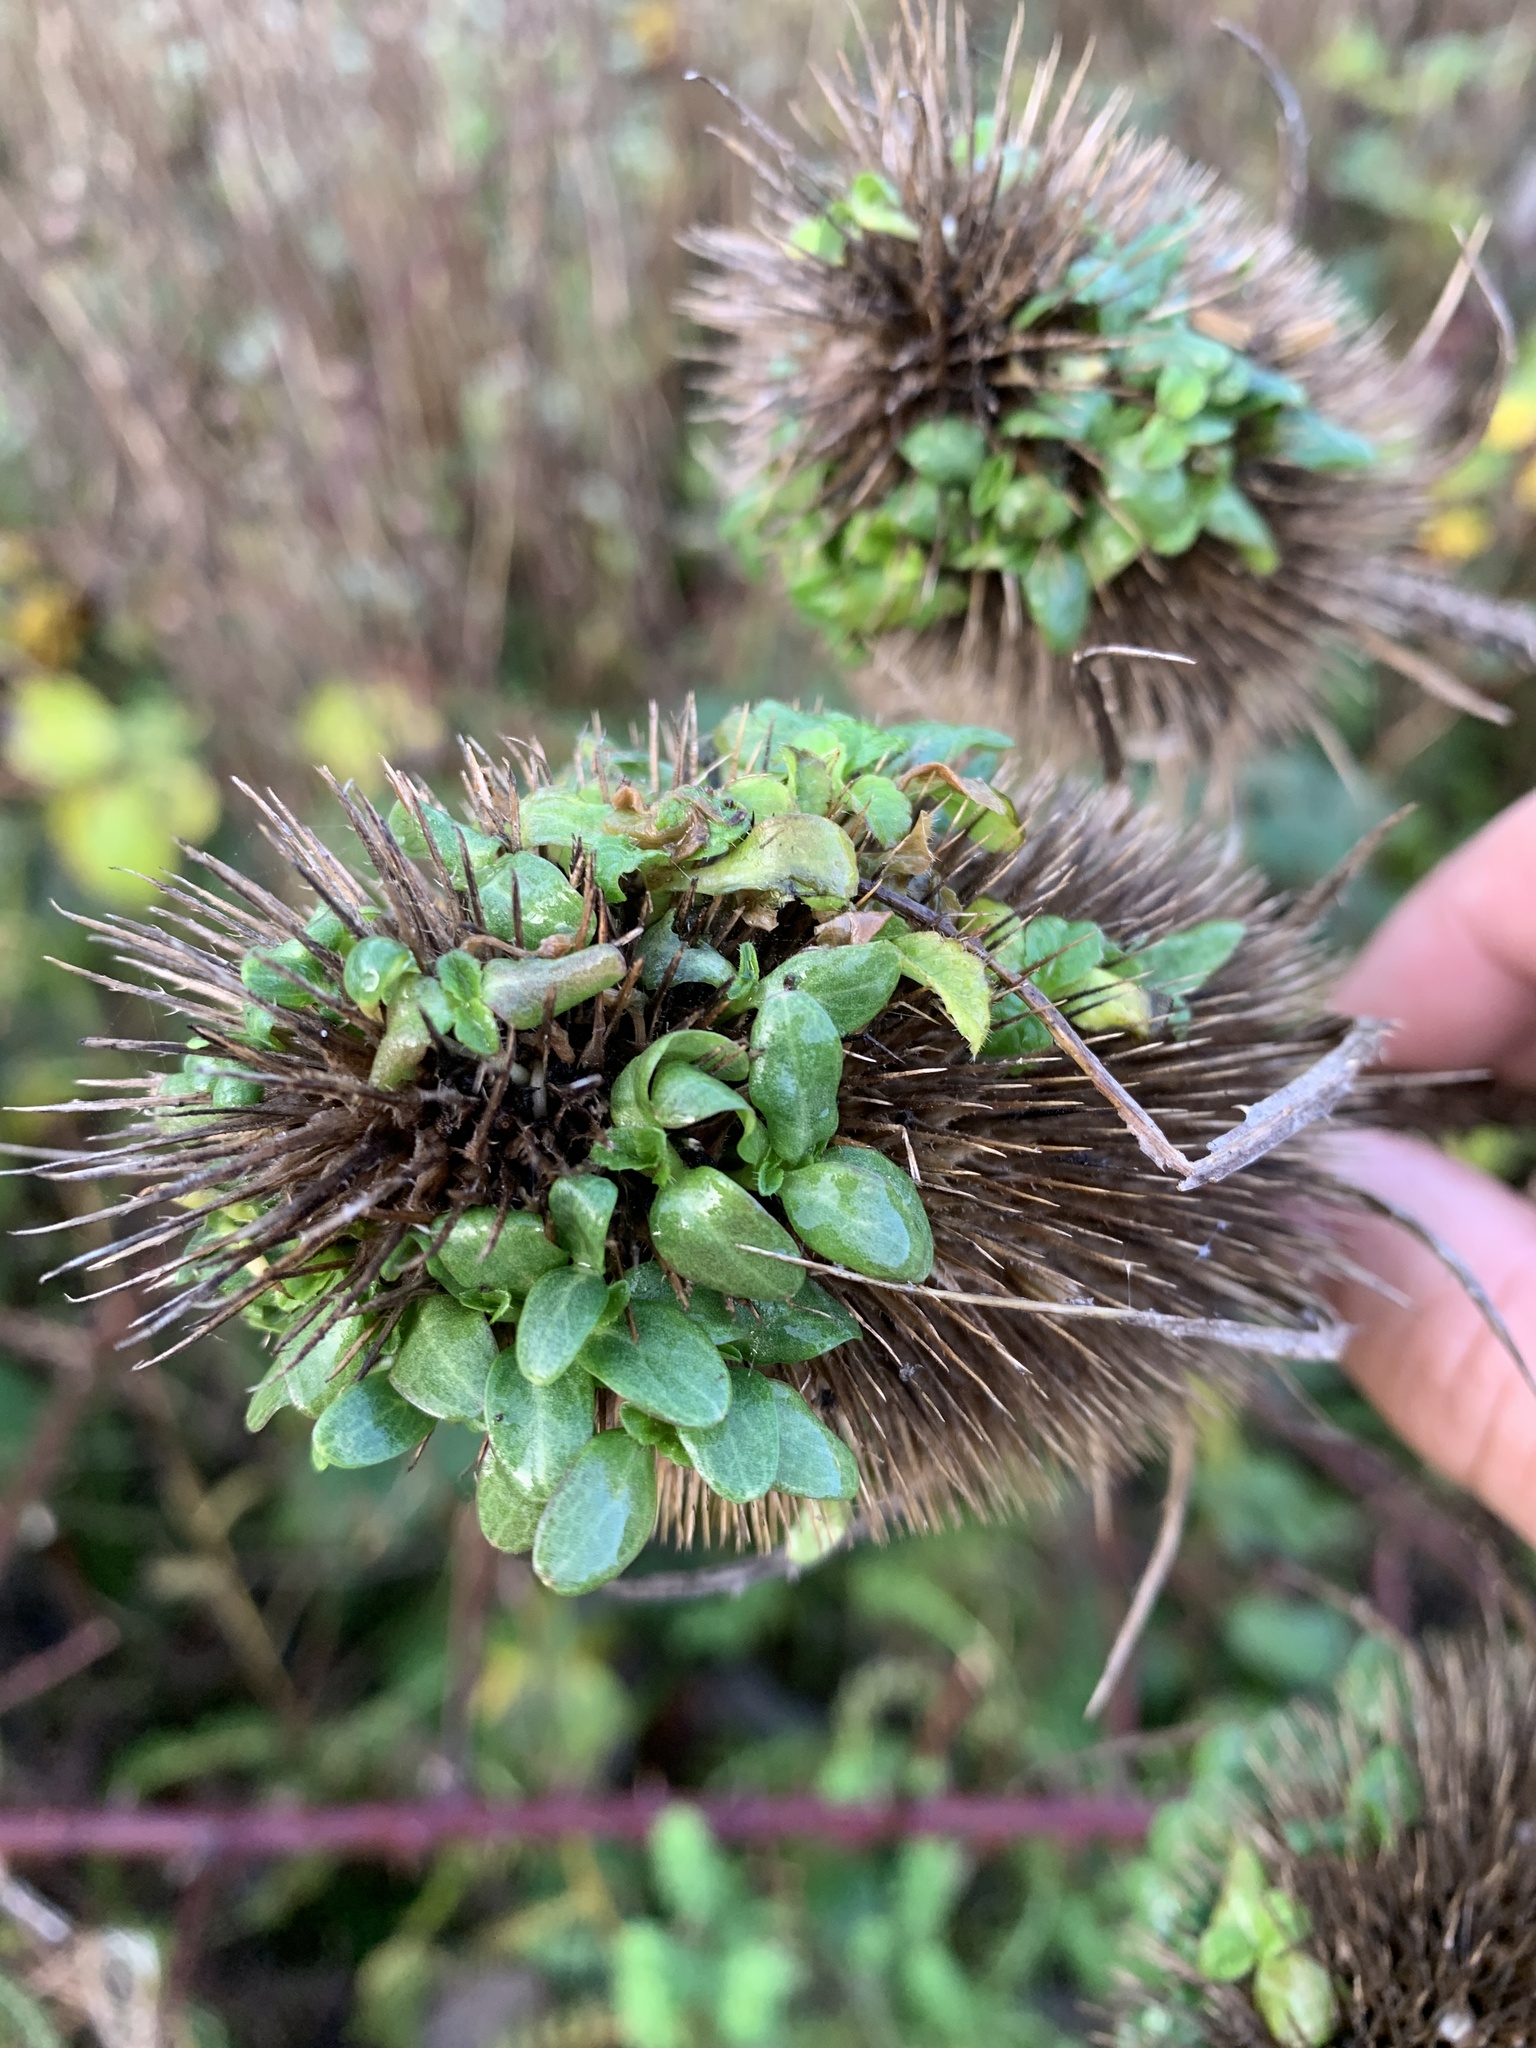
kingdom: Plantae
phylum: Tracheophyta
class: Magnoliopsida
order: Dipsacales
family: Caprifoliaceae
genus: Dipsacus
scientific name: Dipsacus fullonum
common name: Teasel
